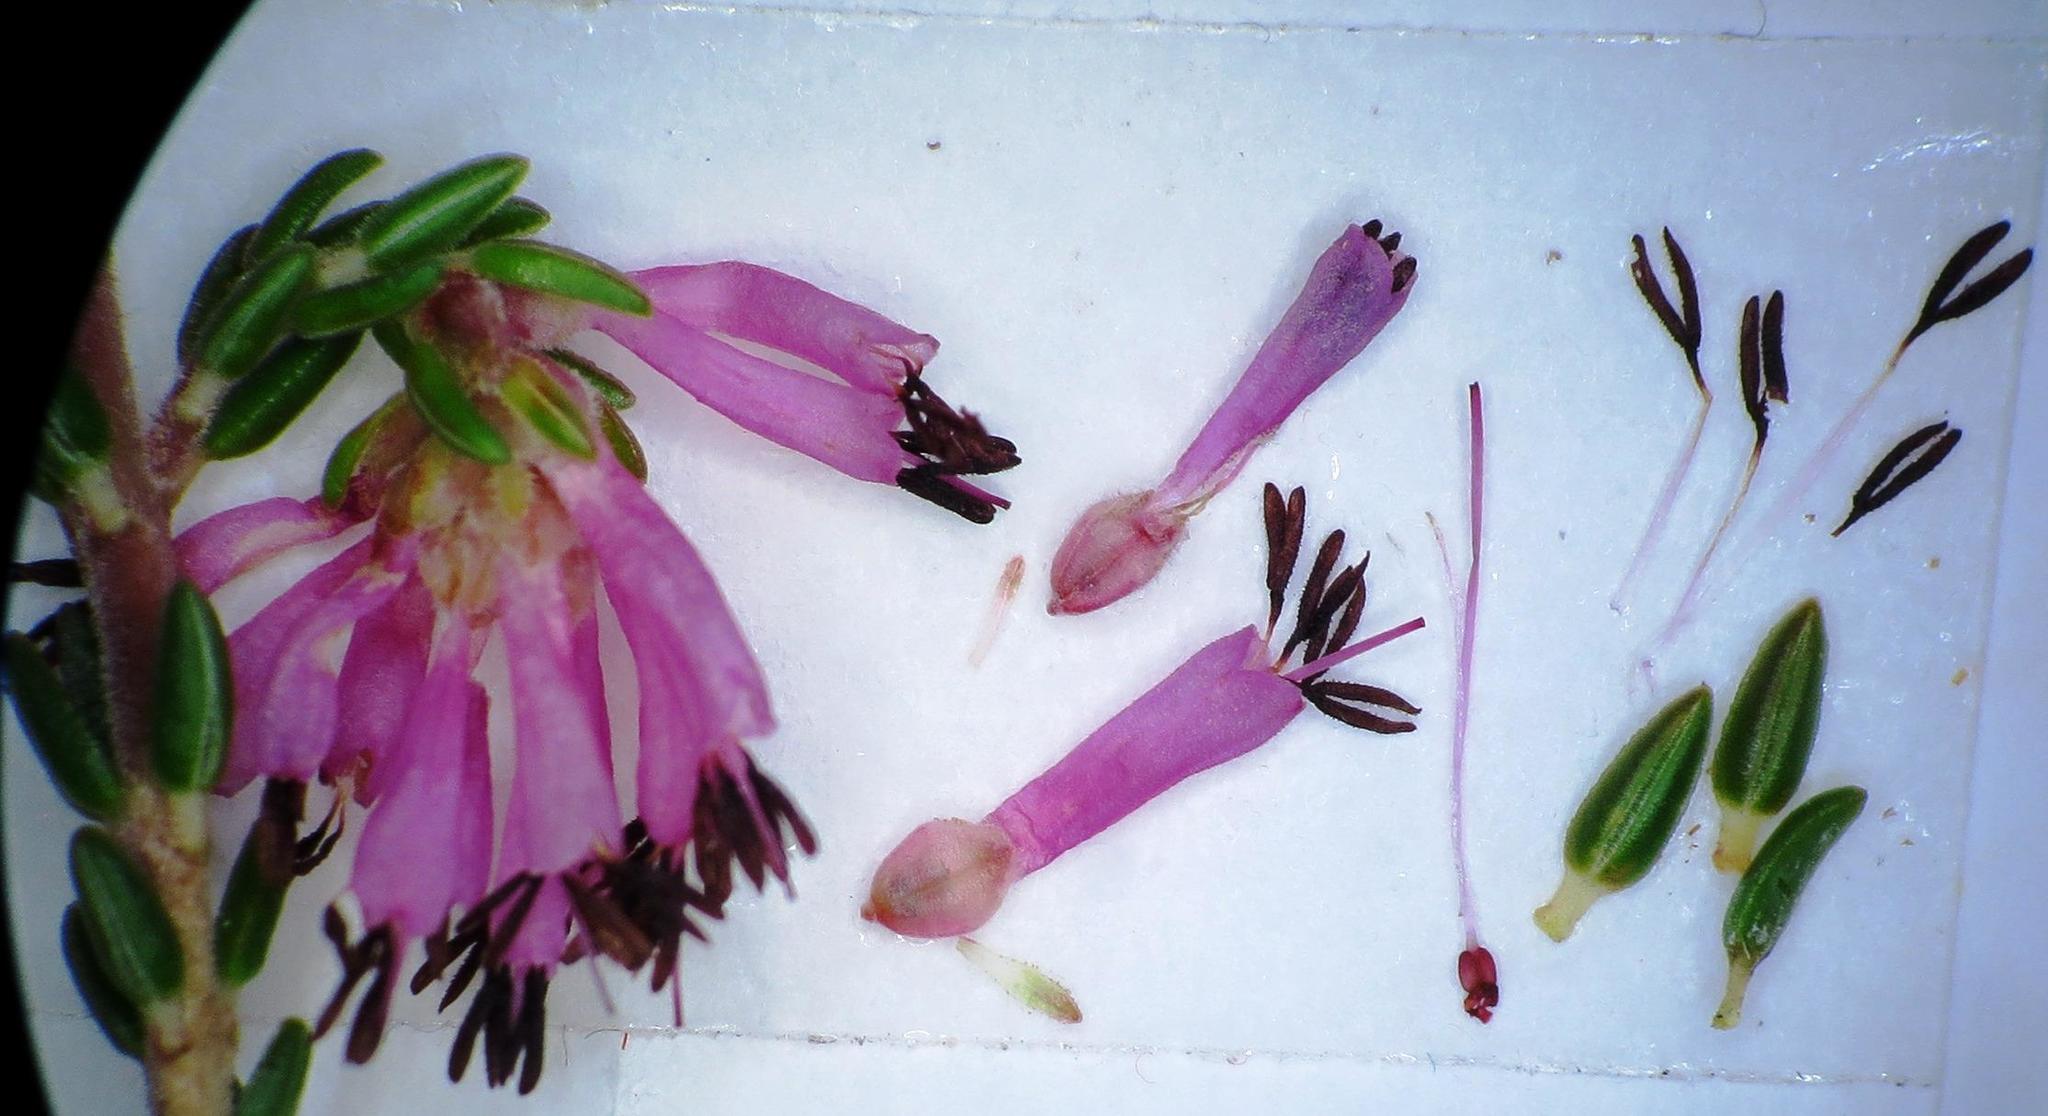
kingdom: Plantae
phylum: Tracheophyta
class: Magnoliopsida
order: Ericales
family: Ericaceae
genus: Erica
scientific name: Erica labialis
